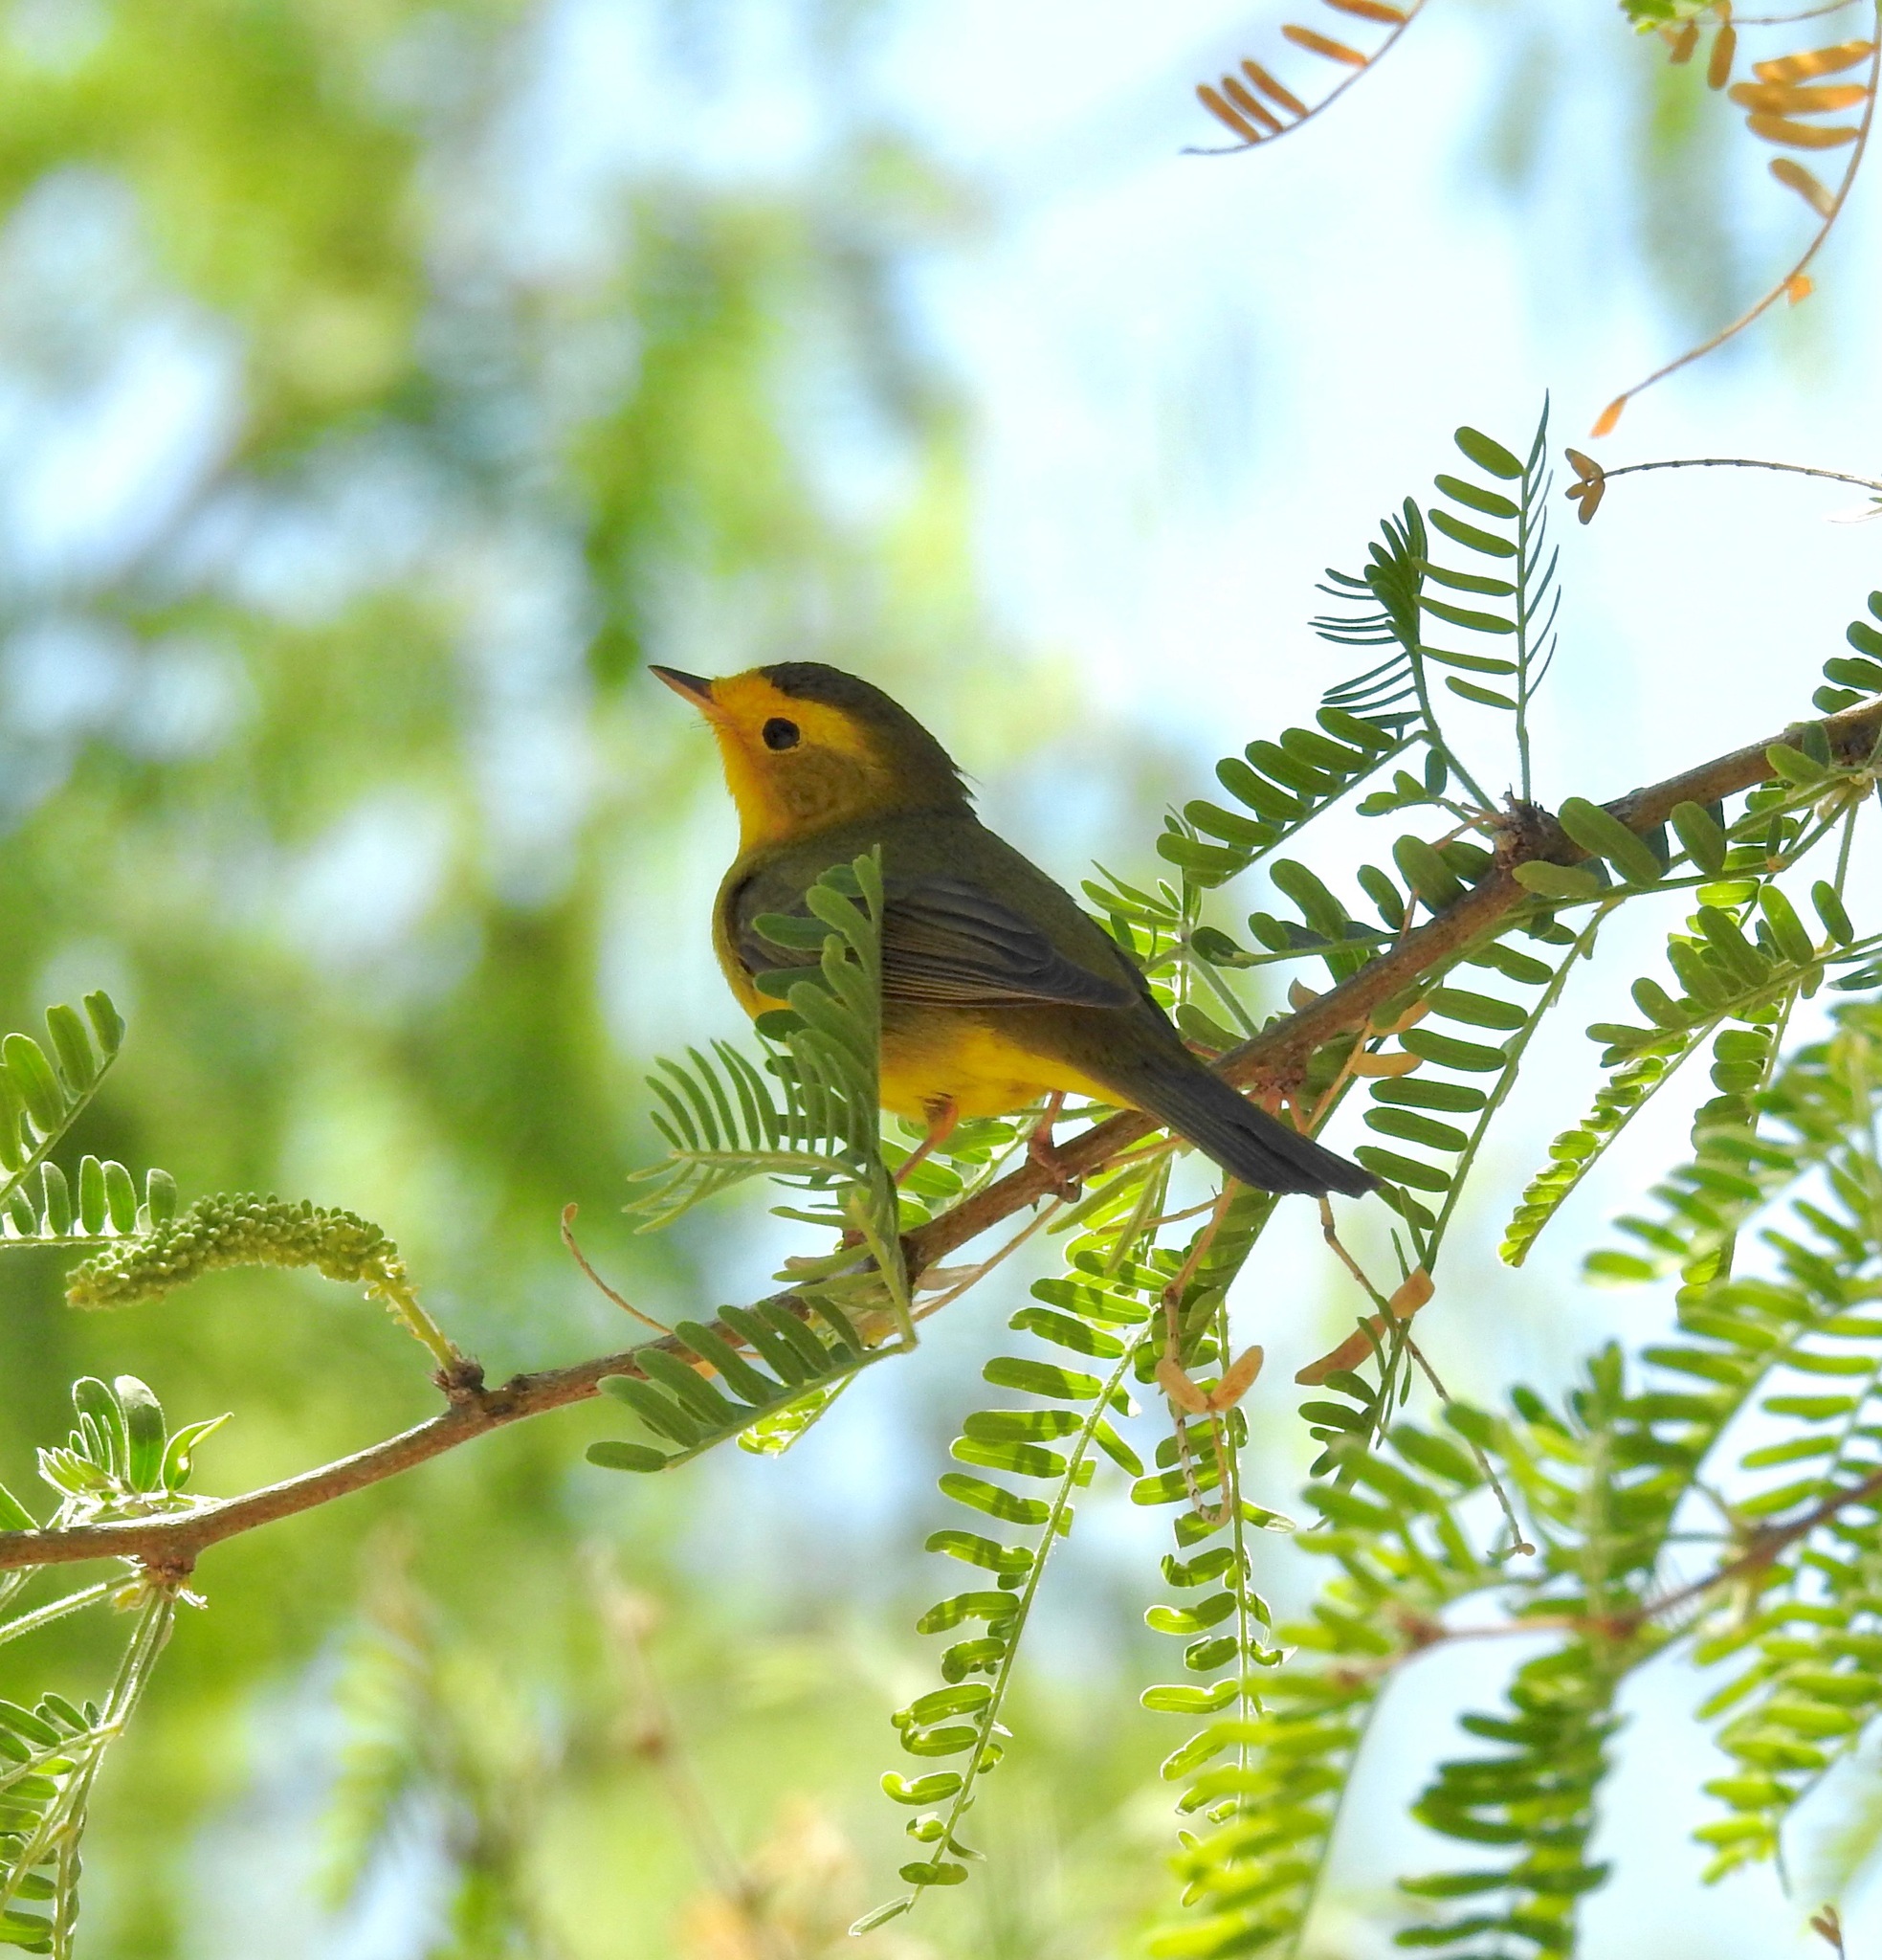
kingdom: Animalia
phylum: Chordata
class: Aves
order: Passeriformes
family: Parulidae
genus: Cardellina
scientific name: Cardellina pusilla
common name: Wilson's warbler
